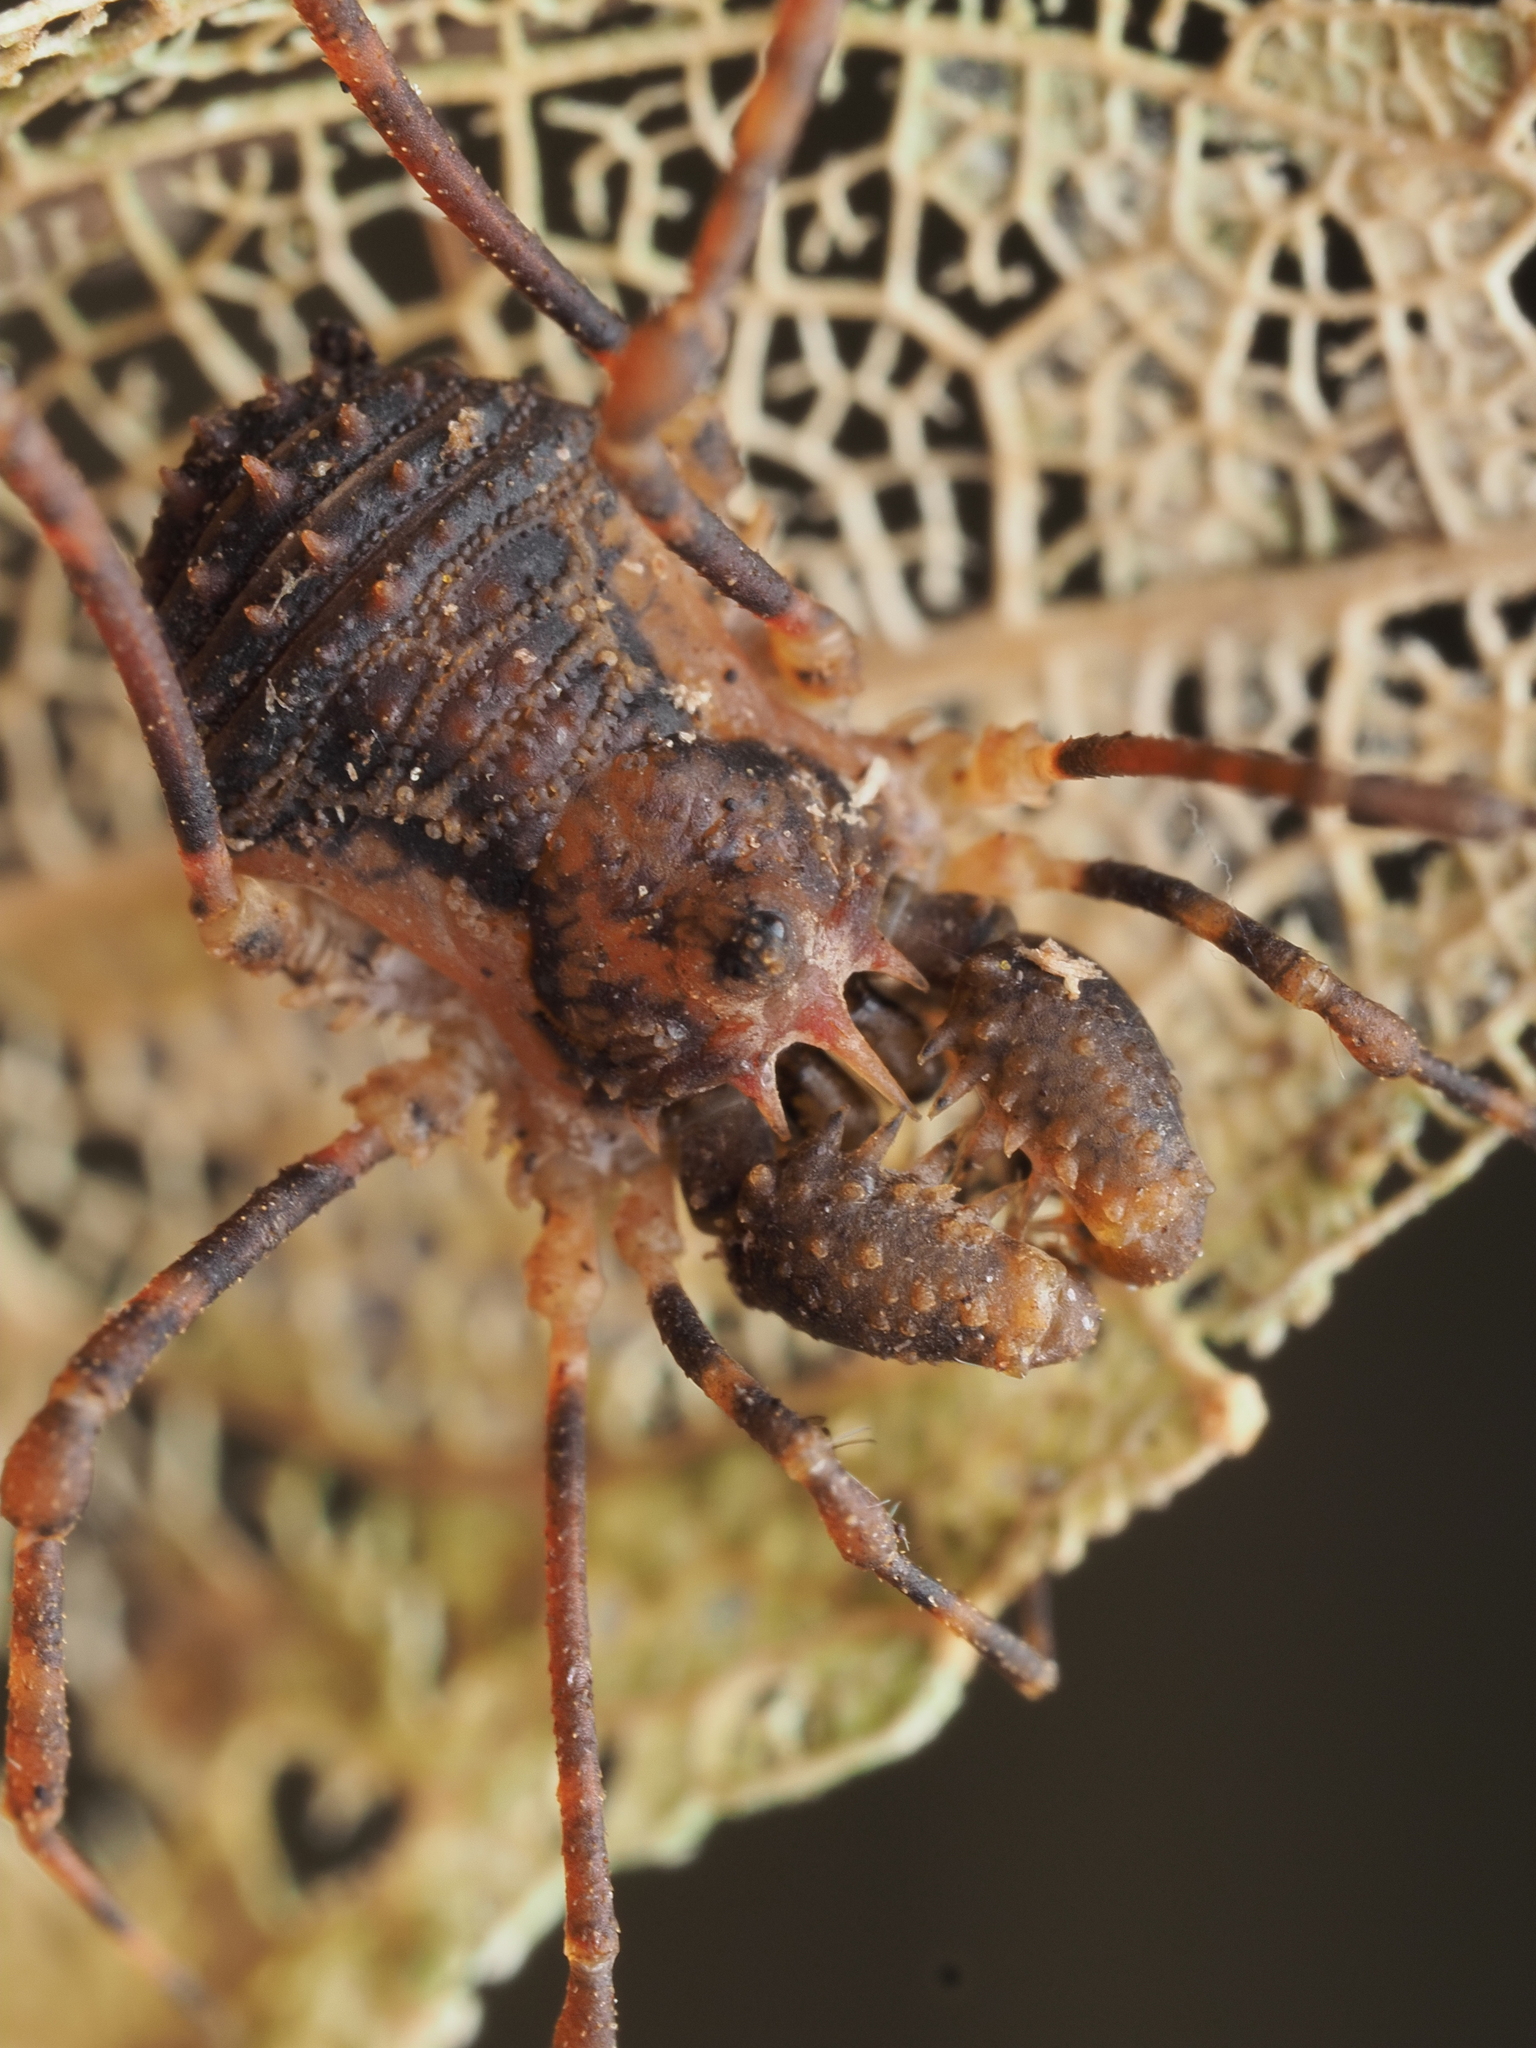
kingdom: Animalia
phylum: Arthropoda
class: Arachnida
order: Opiliones
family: Triaenonychidae
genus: Algidia
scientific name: Algidia chiltoni
